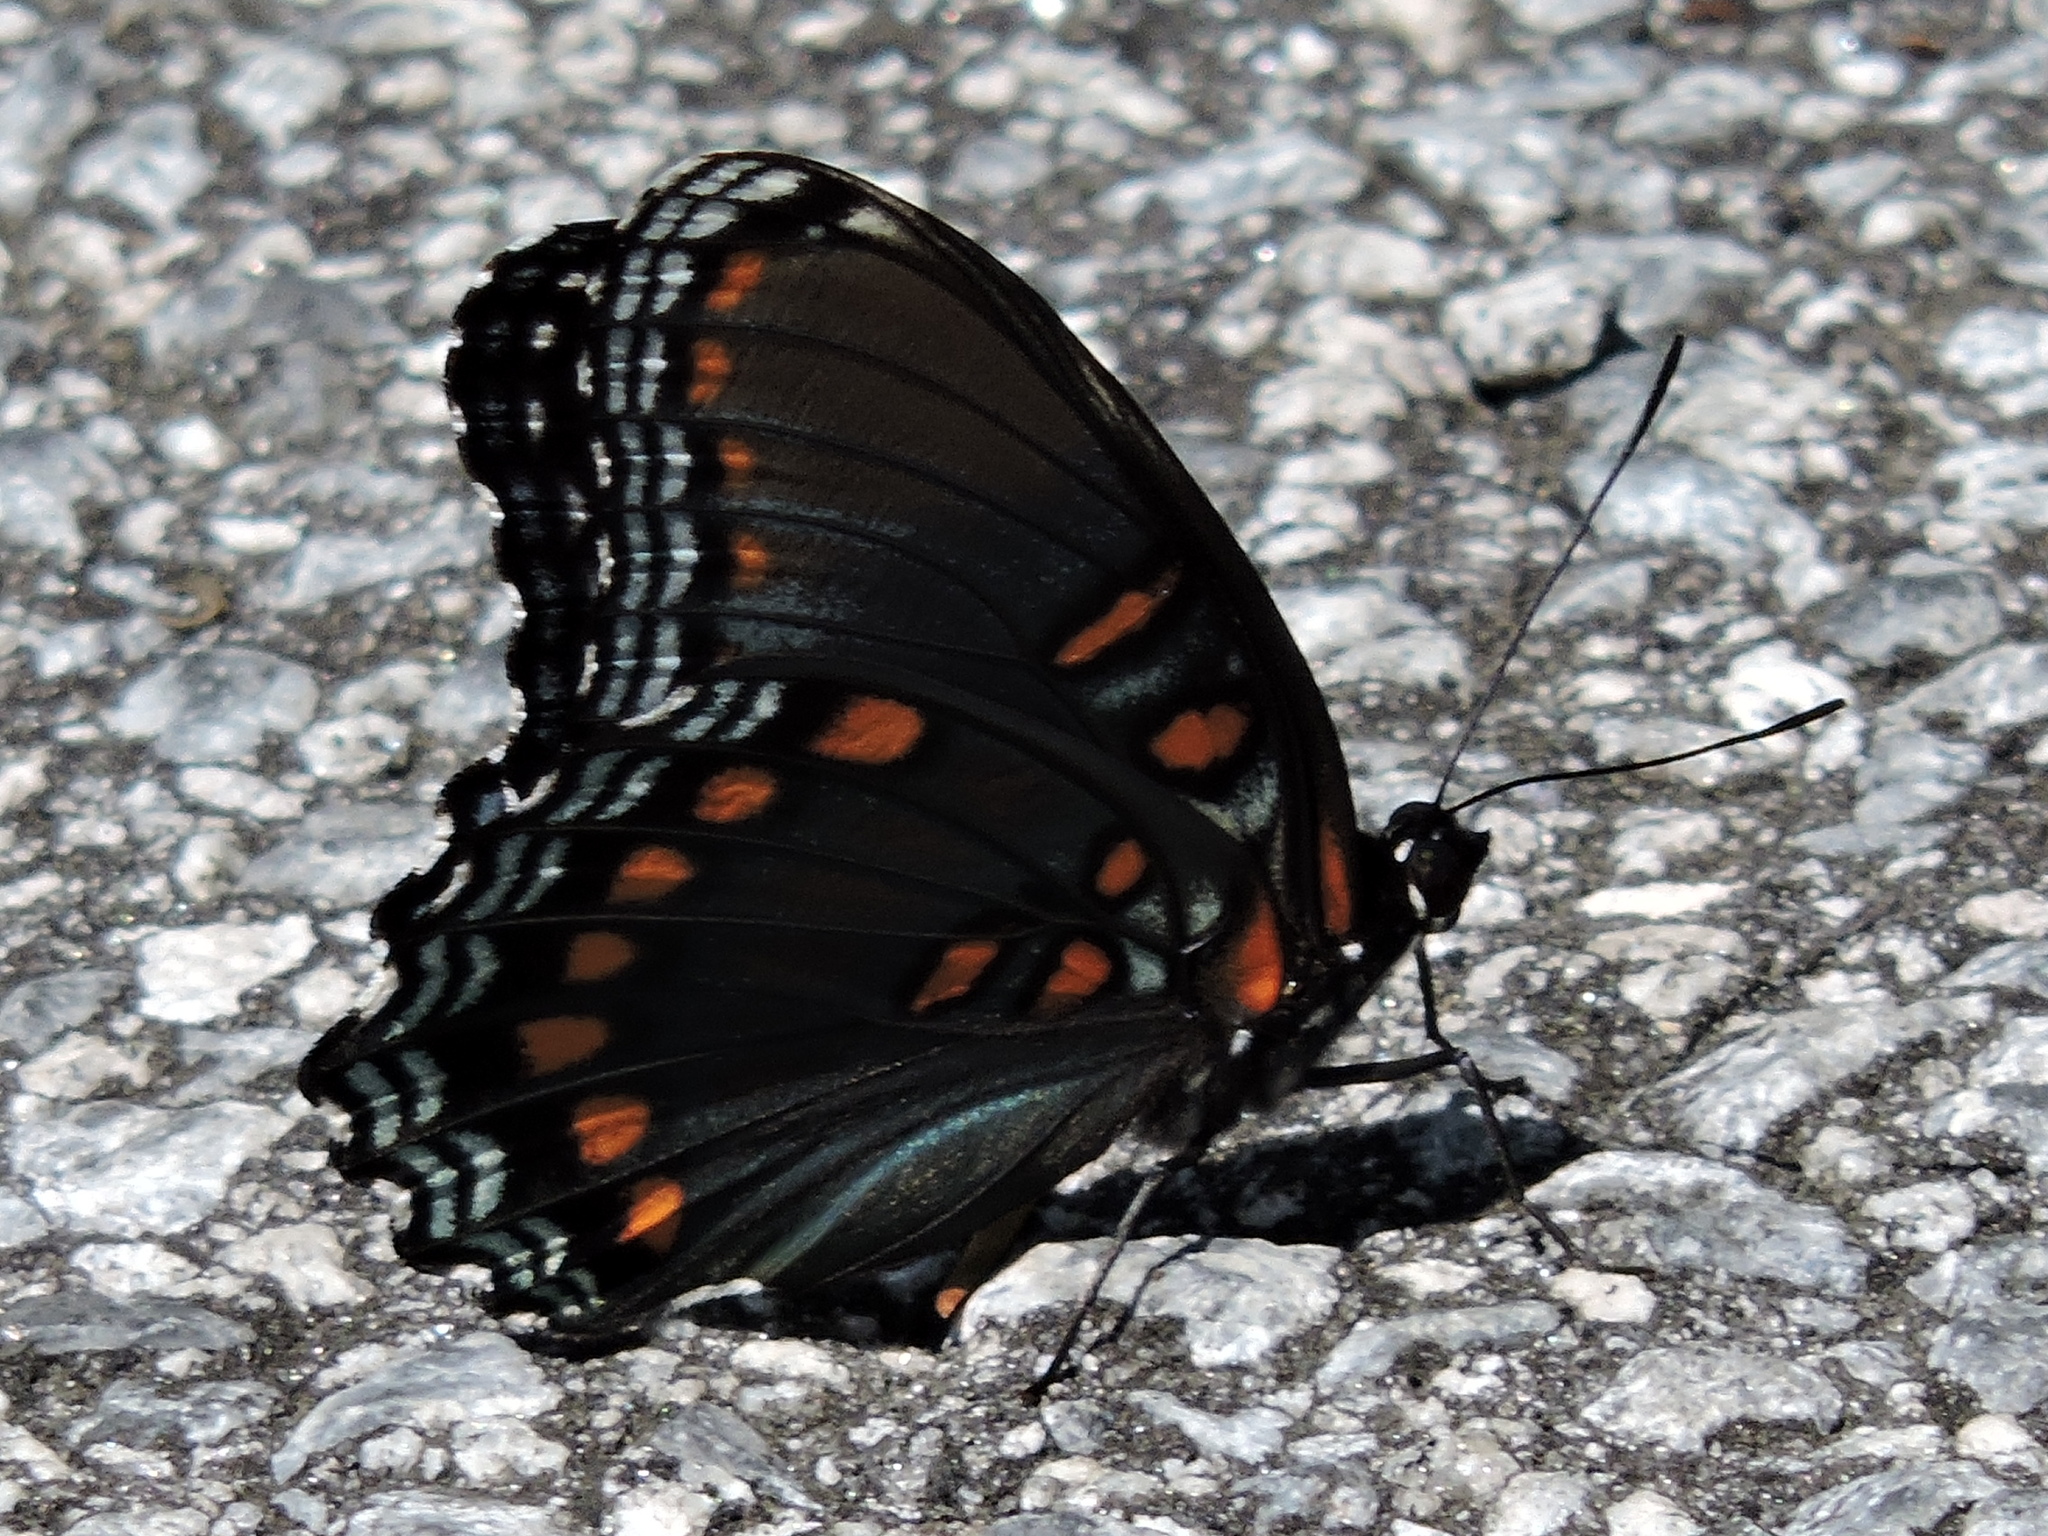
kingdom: Animalia
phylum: Arthropoda
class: Insecta
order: Lepidoptera
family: Nymphalidae
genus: Limenitis
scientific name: Limenitis arthemis
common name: Red-spotted admiral
